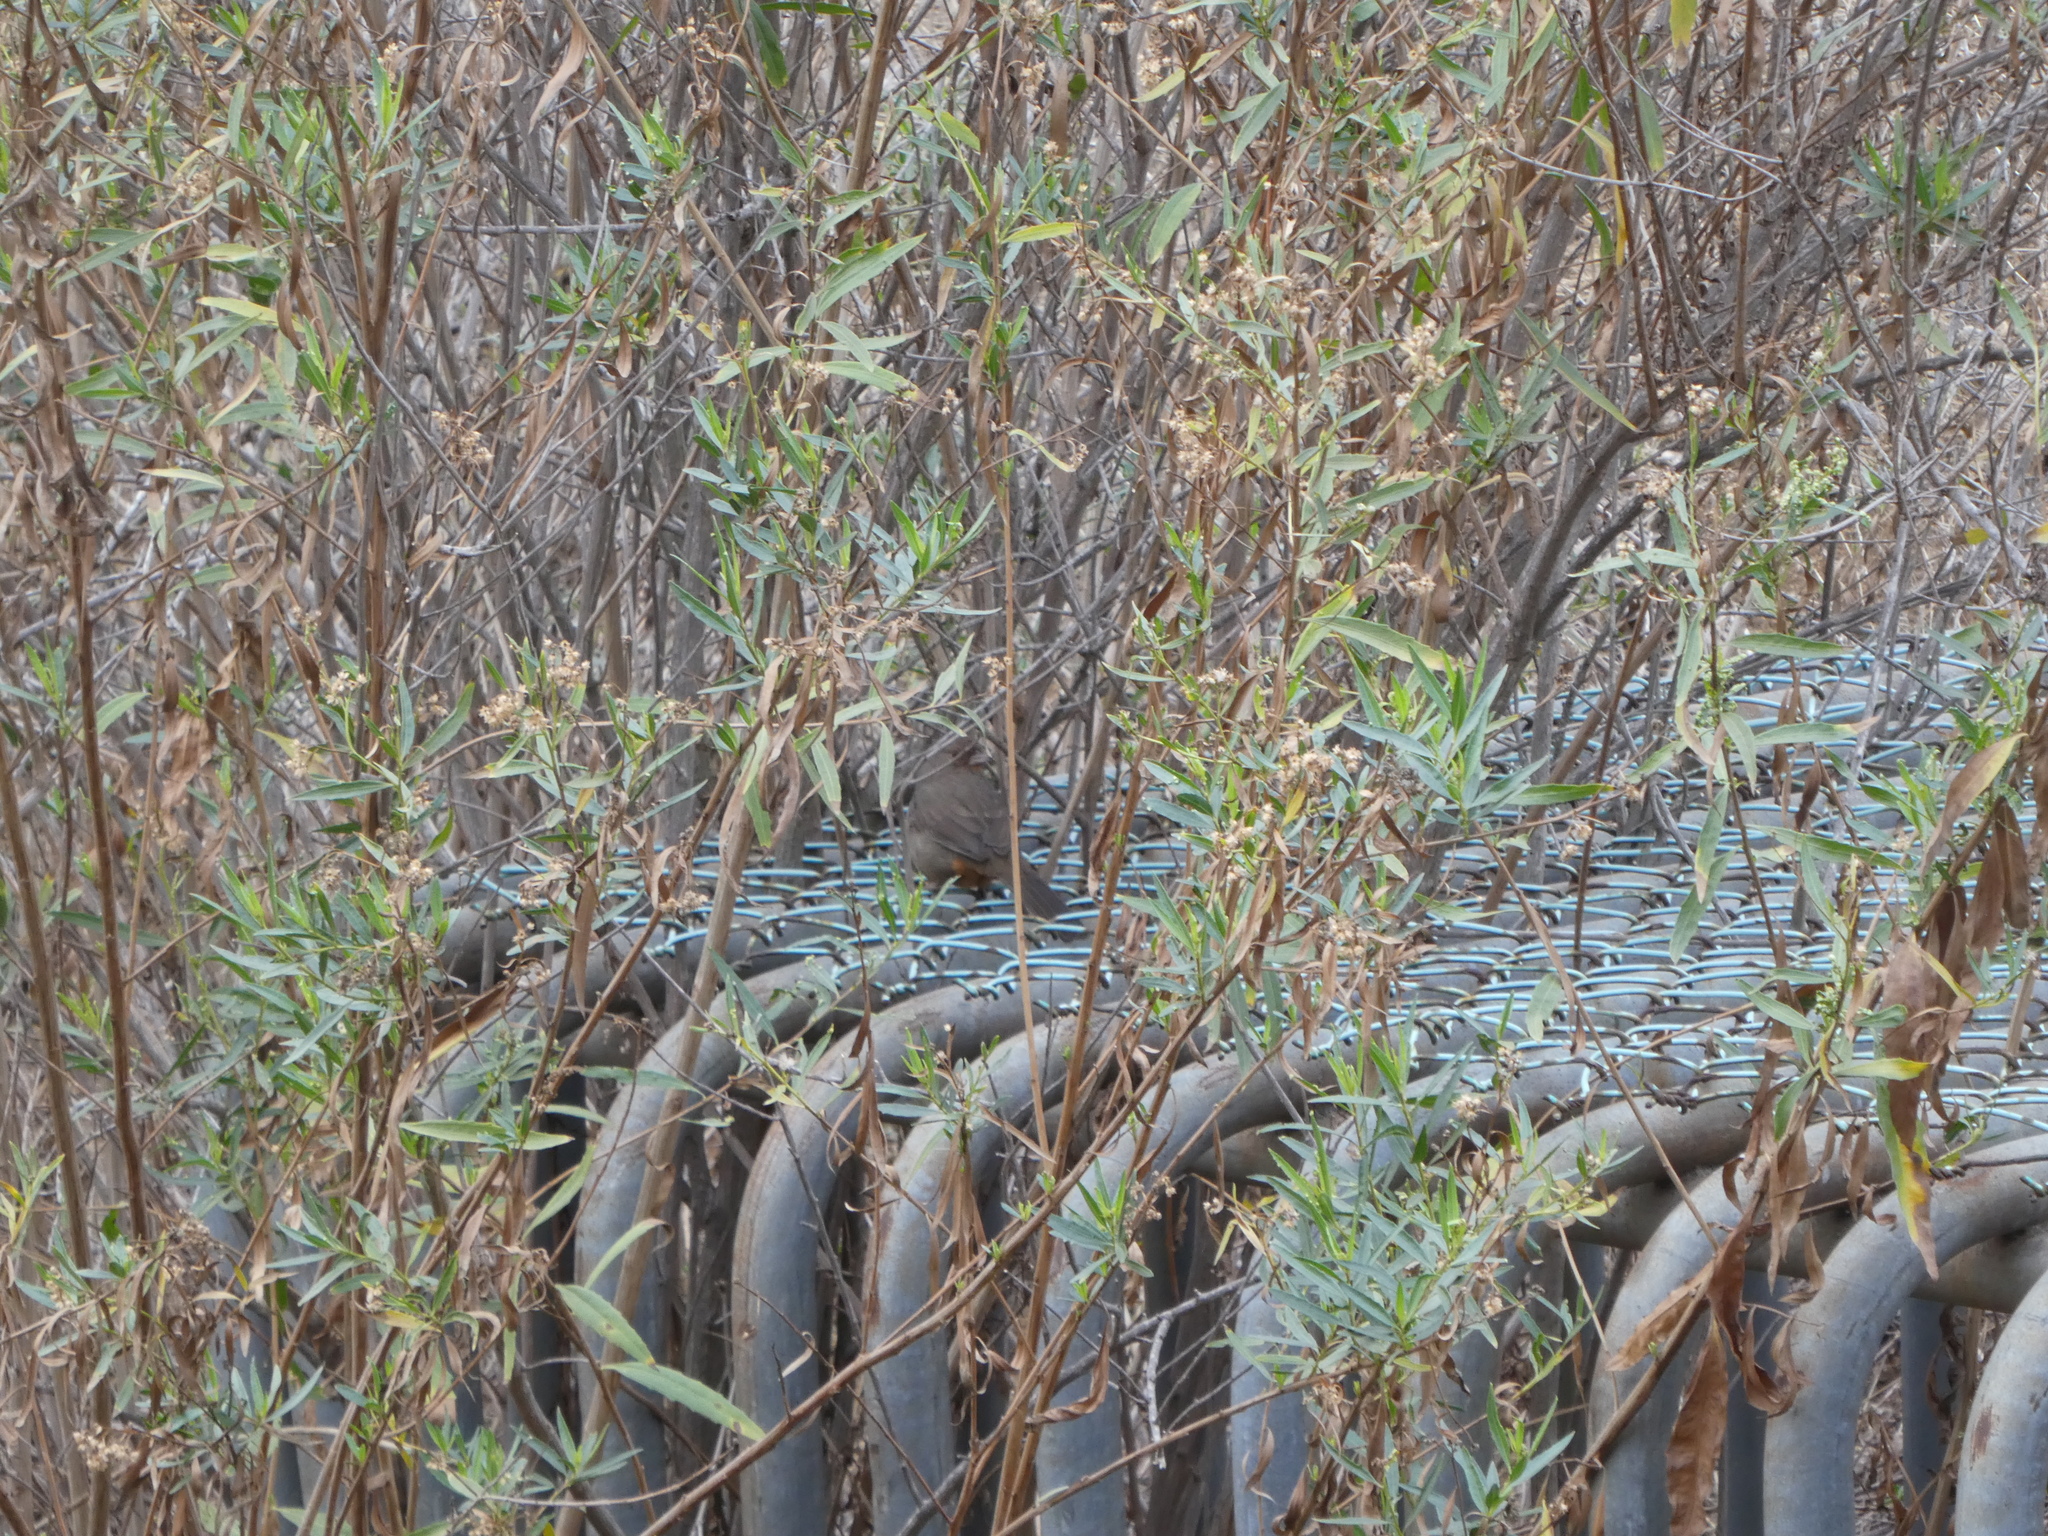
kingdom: Animalia
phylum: Chordata
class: Aves
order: Passeriformes
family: Passerellidae
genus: Melozone
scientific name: Melozone crissalis
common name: California towhee
